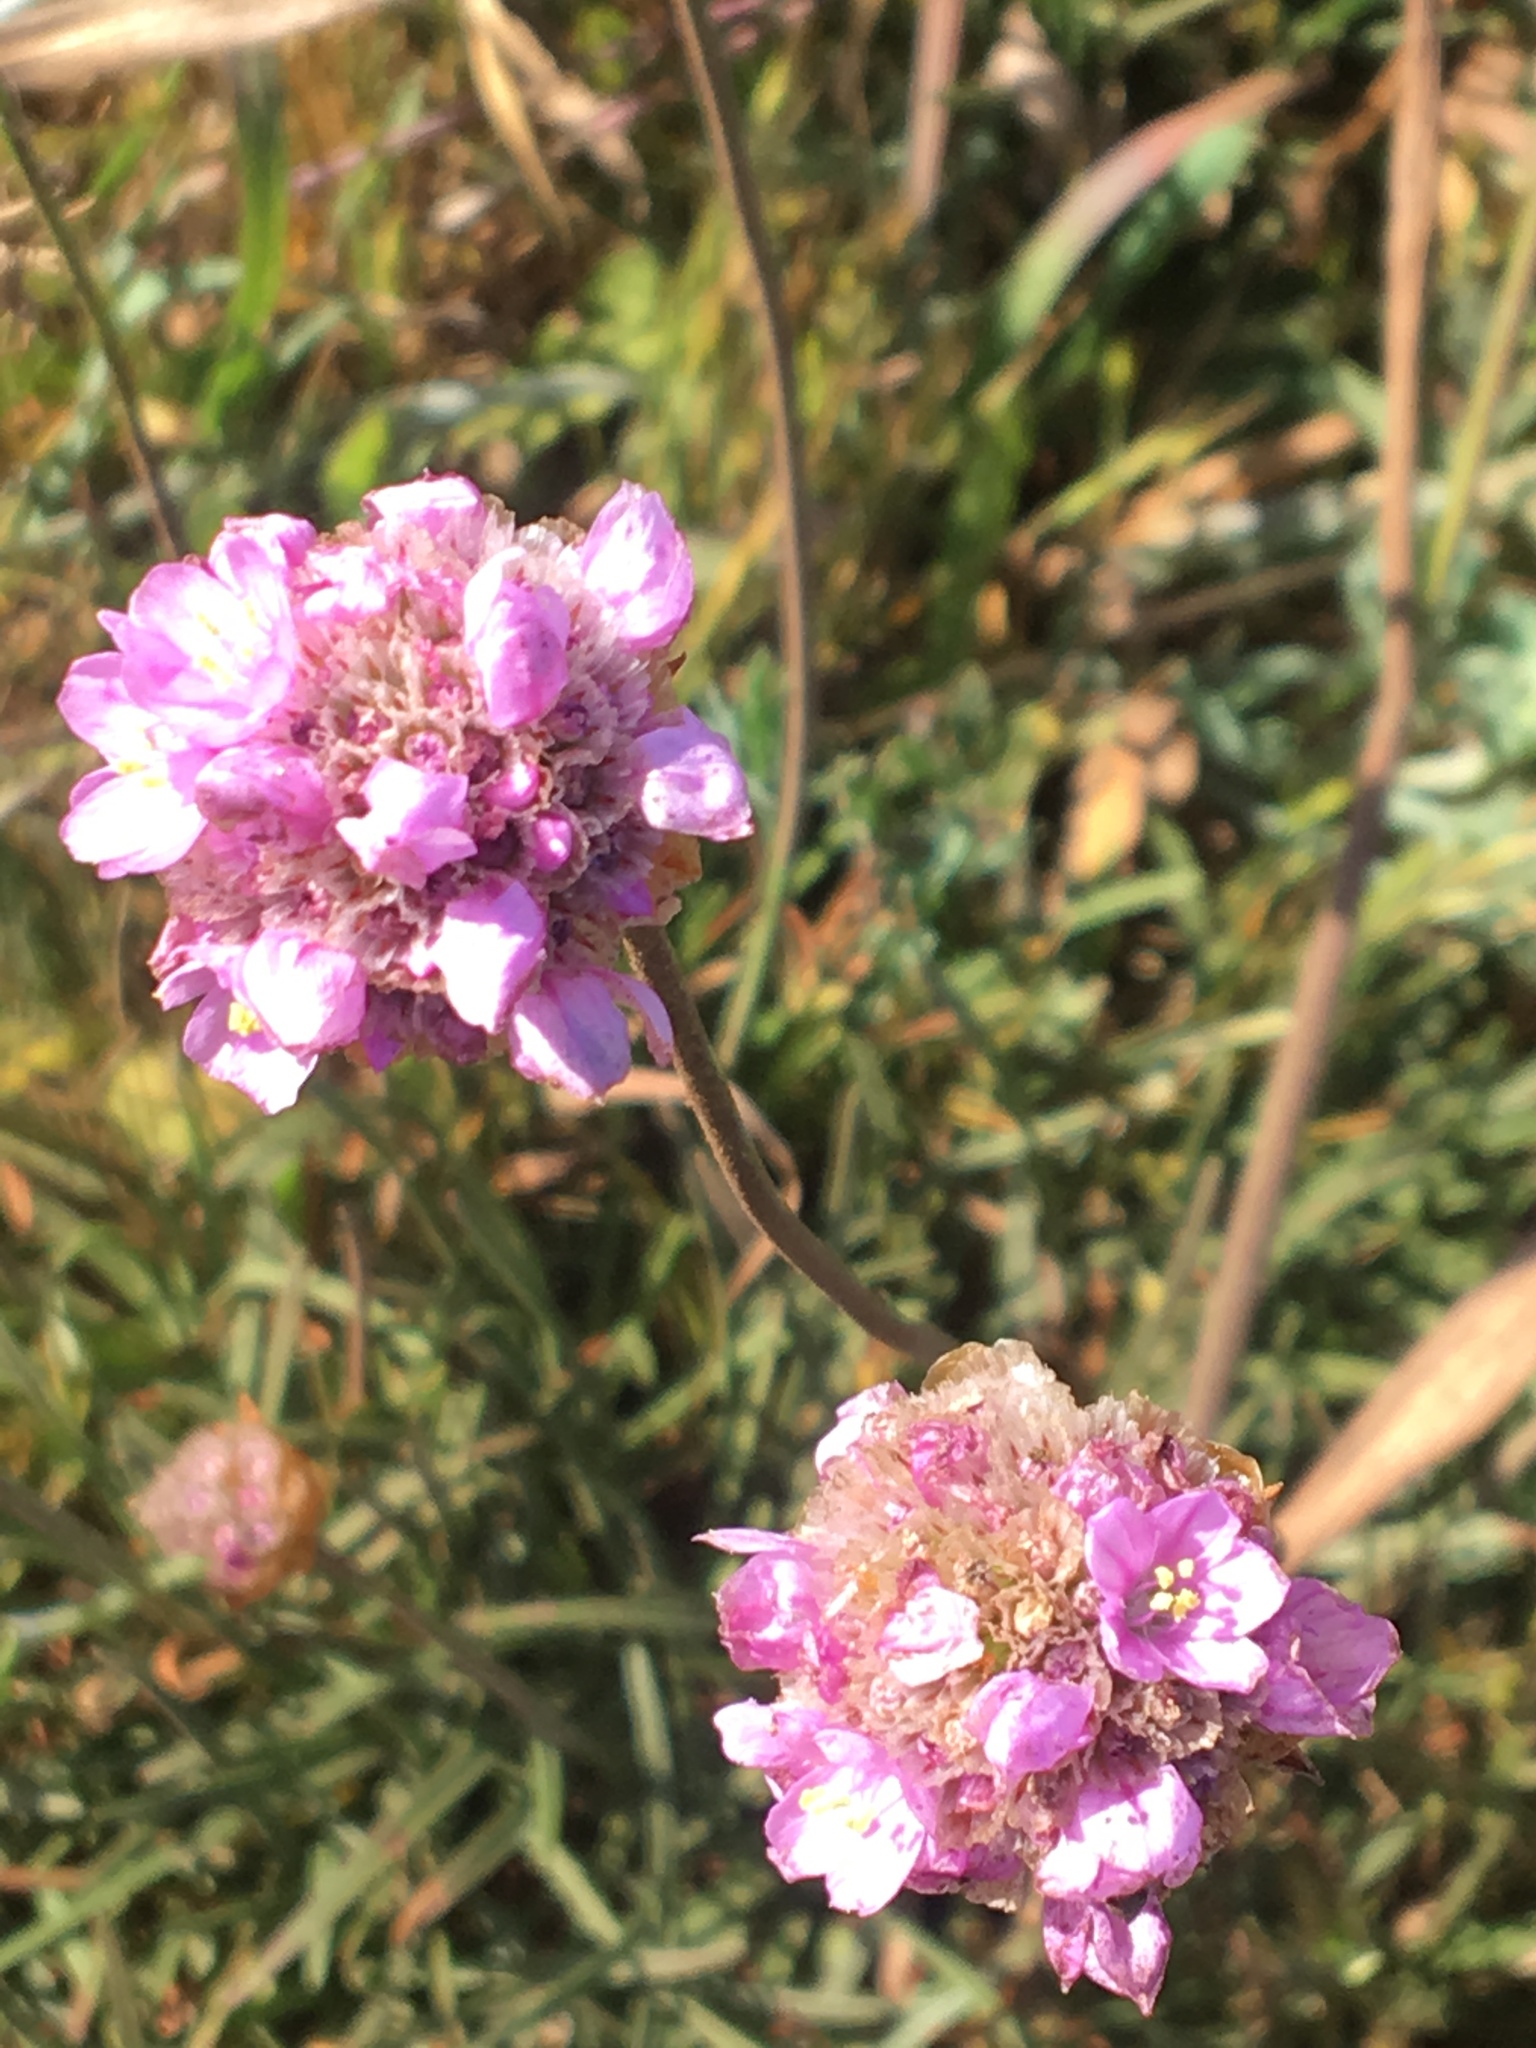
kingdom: Plantae
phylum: Tracheophyta
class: Magnoliopsida
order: Caryophyllales
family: Plumbaginaceae
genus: Armeria
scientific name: Armeria maritima
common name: Thrift
